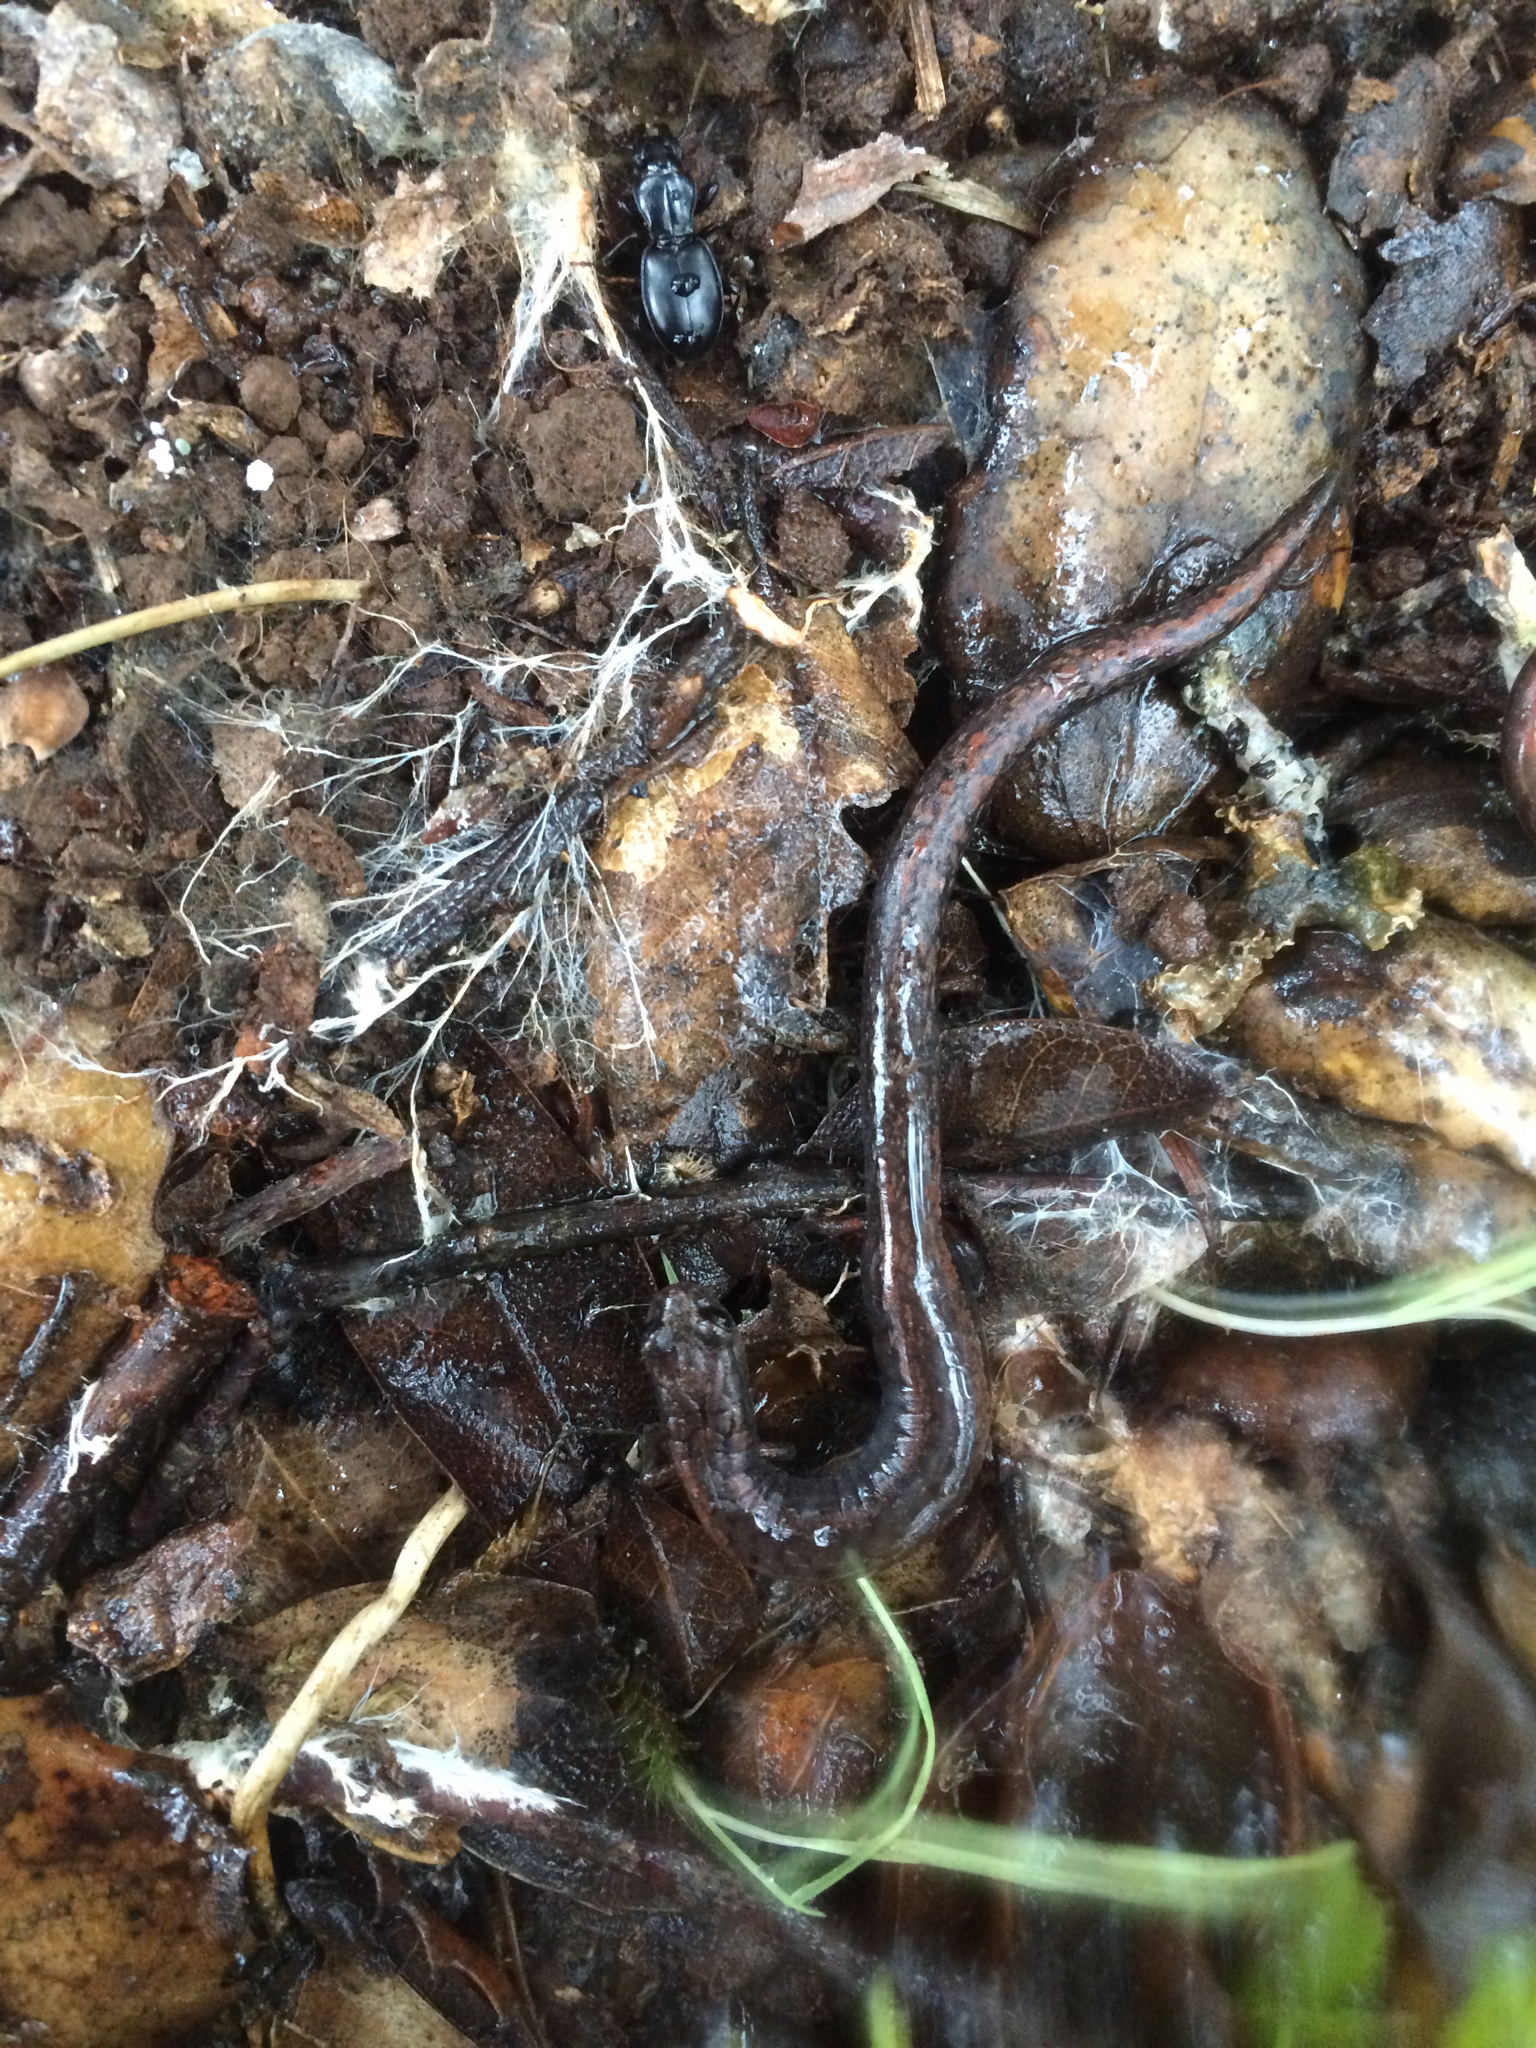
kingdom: Animalia
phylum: Chordata
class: Amphibia
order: Caudata
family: Plethodontidae
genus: Batrachoseps
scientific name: Batrachoseps attenuatus
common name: California slender salamander
